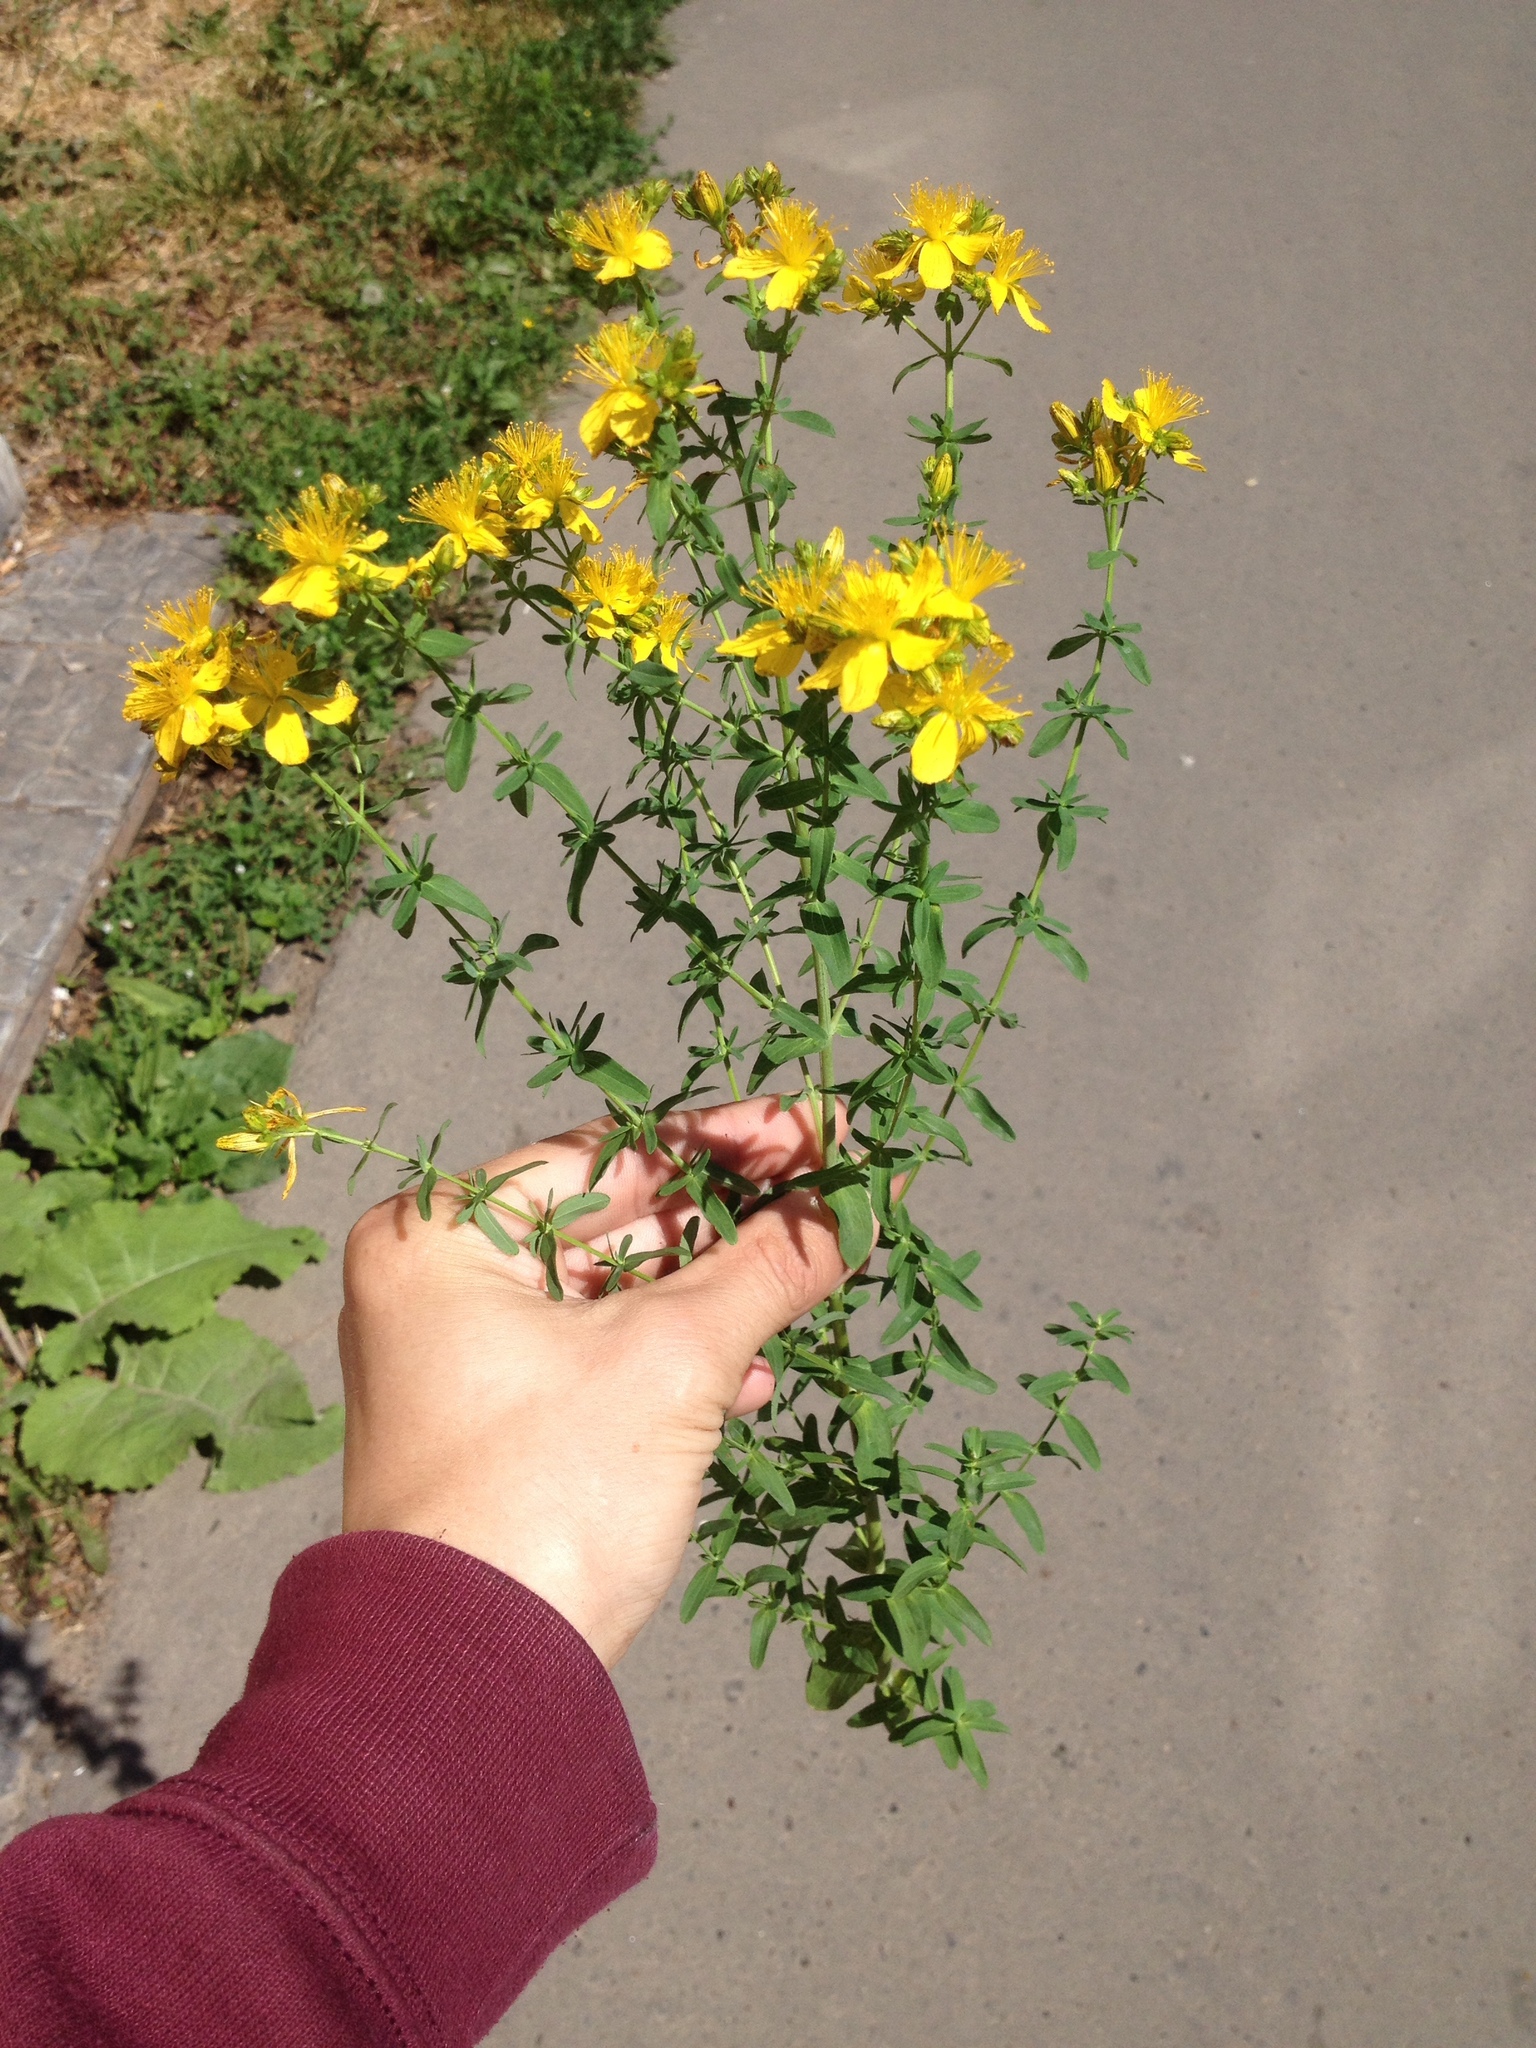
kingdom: Plantae
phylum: Tracheophyta
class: Magnoliopsida
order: Malpighiales
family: Hypericaceae
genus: Hypericum
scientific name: Hypericum perforatum
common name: Common st. johnswort
